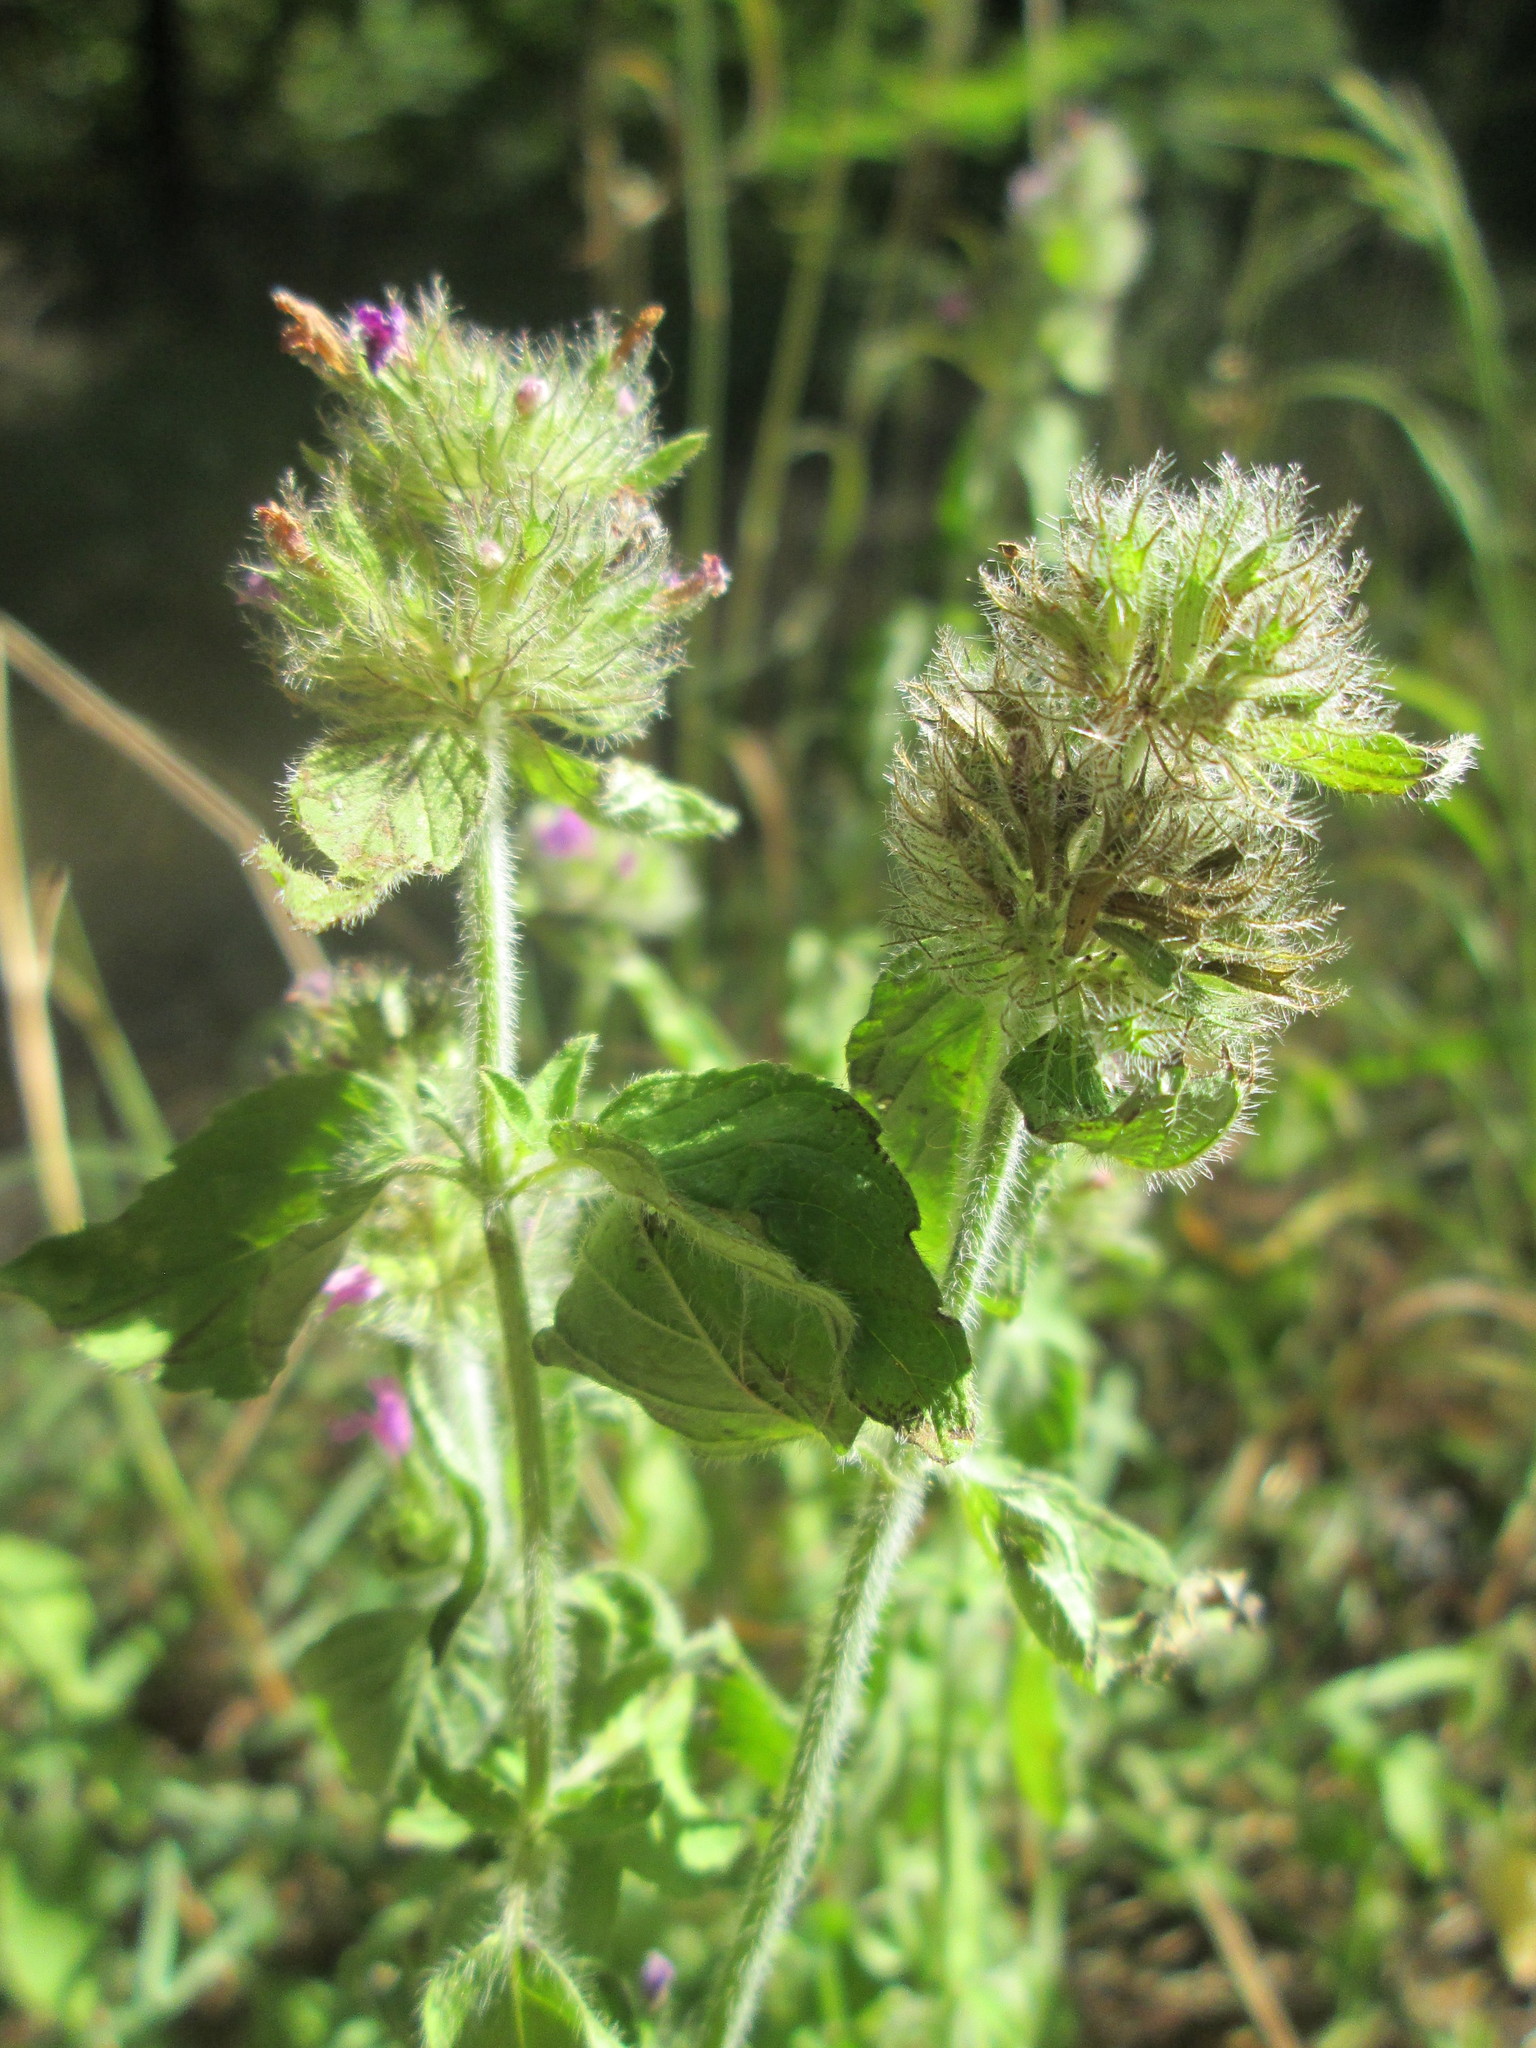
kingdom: Plantae
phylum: Tracheophyta
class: Magnoliopsida
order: Lamiales
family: Lamiaceae
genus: Clinopodium
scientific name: Clinopodium vulgare
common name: Wild basil
